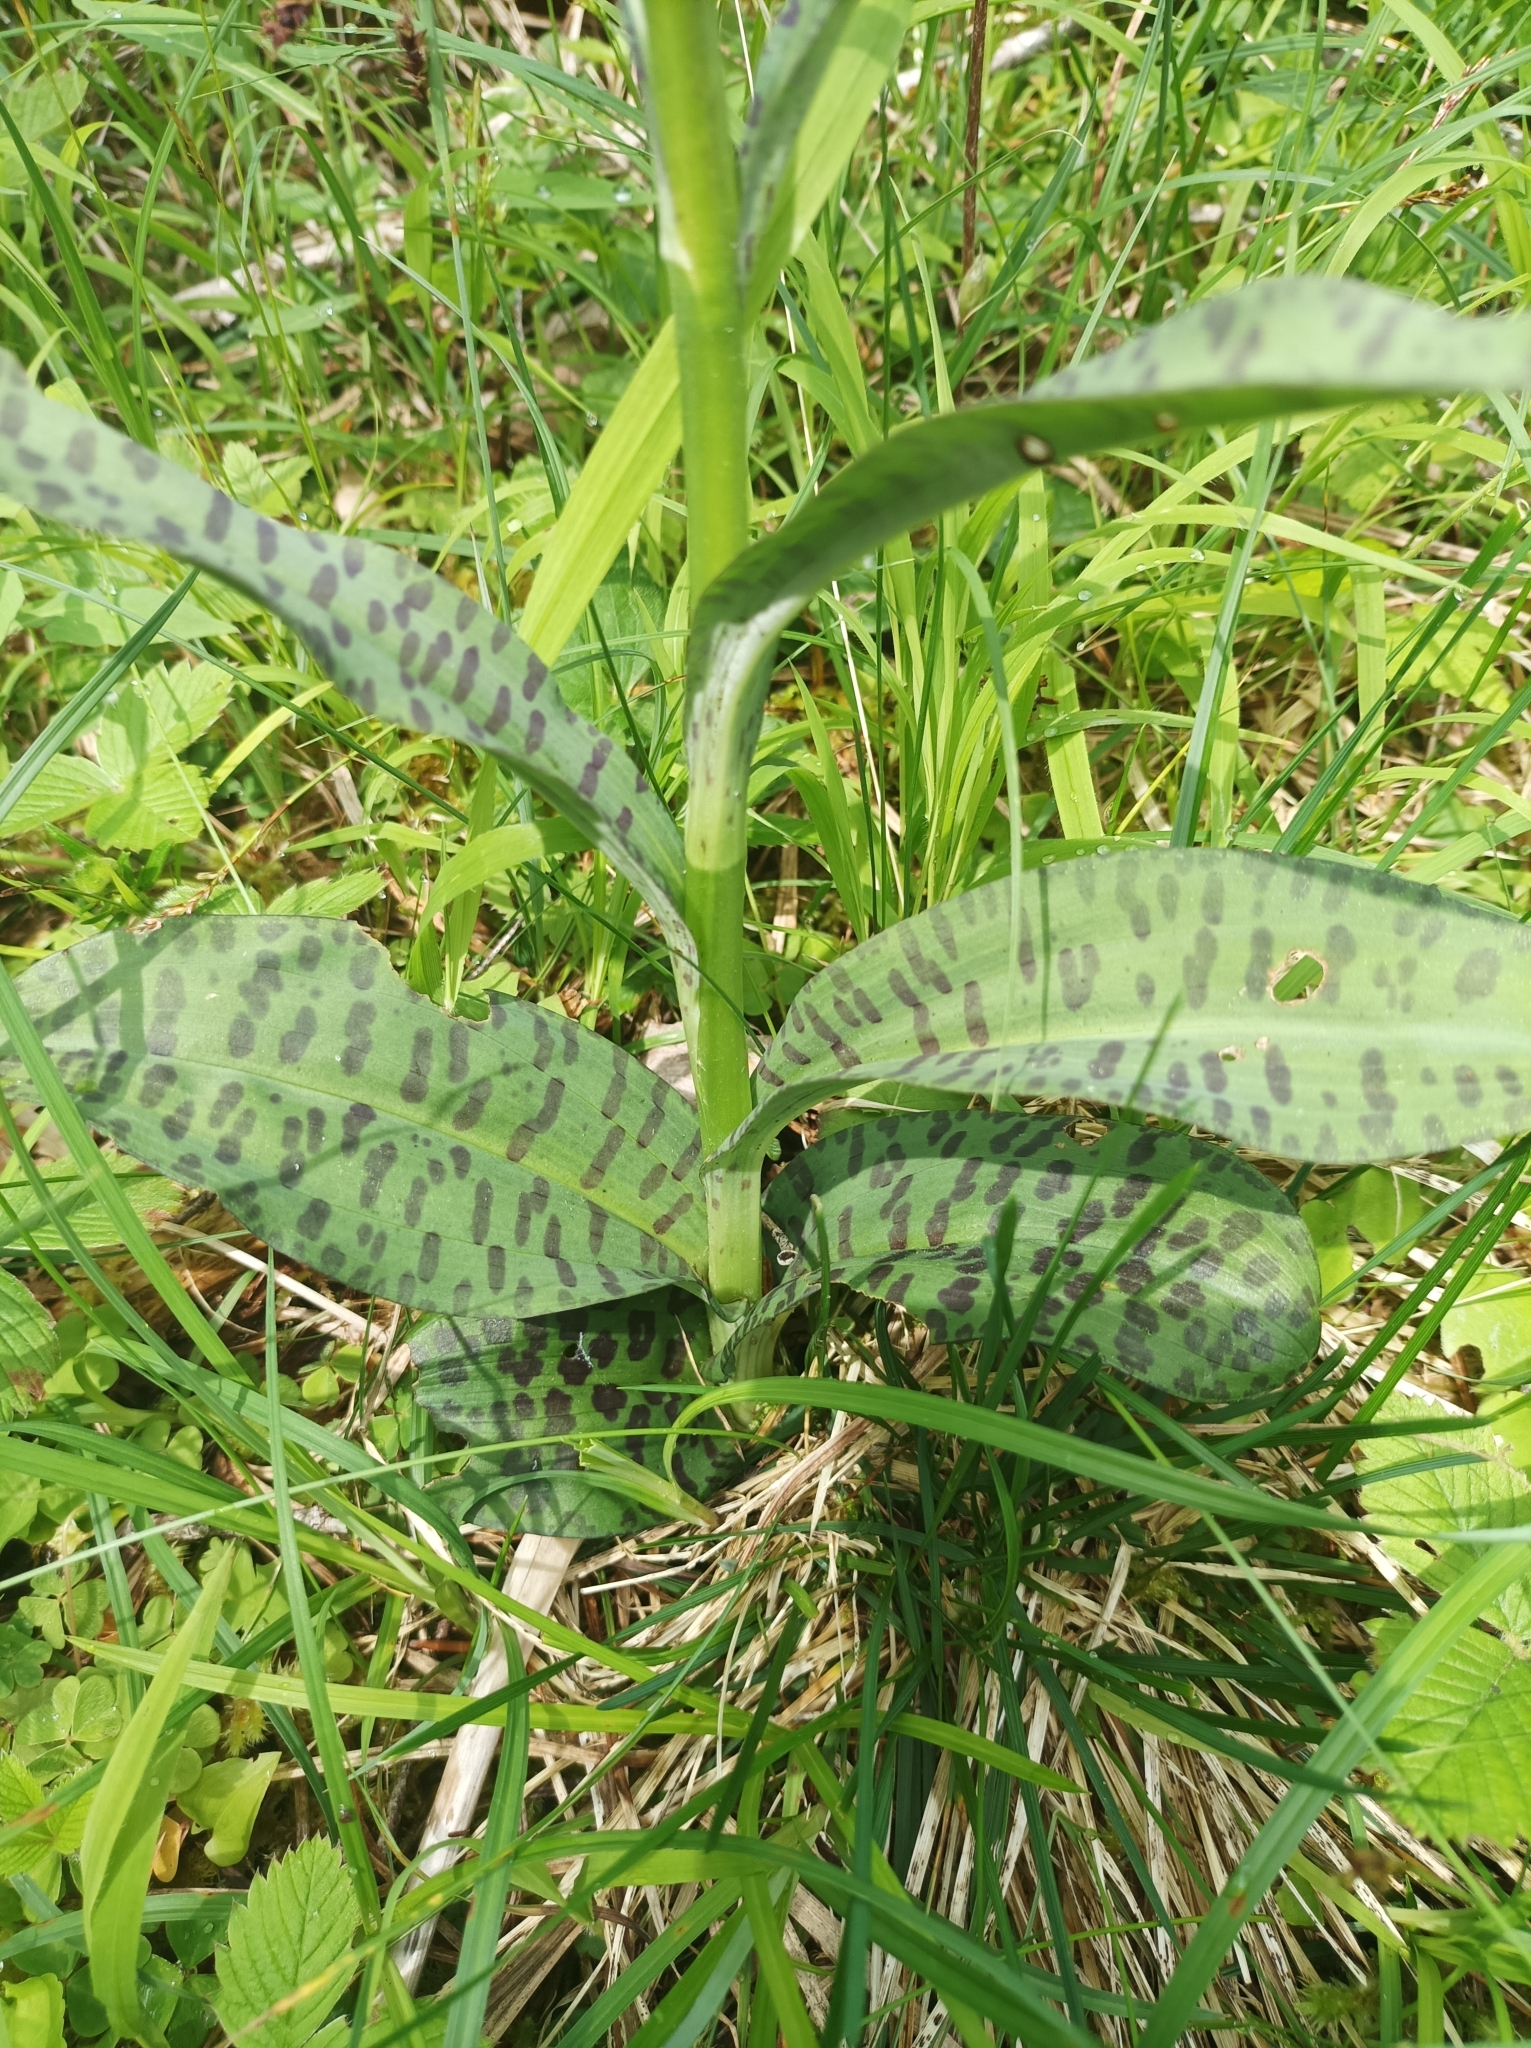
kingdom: Plantae
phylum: Tracheophyta
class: Liliopsida
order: Asparagales
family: Orchidaceae
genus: Dactylorhiza
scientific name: Dactylorhiza maculata
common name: Heath spotted-orchid
